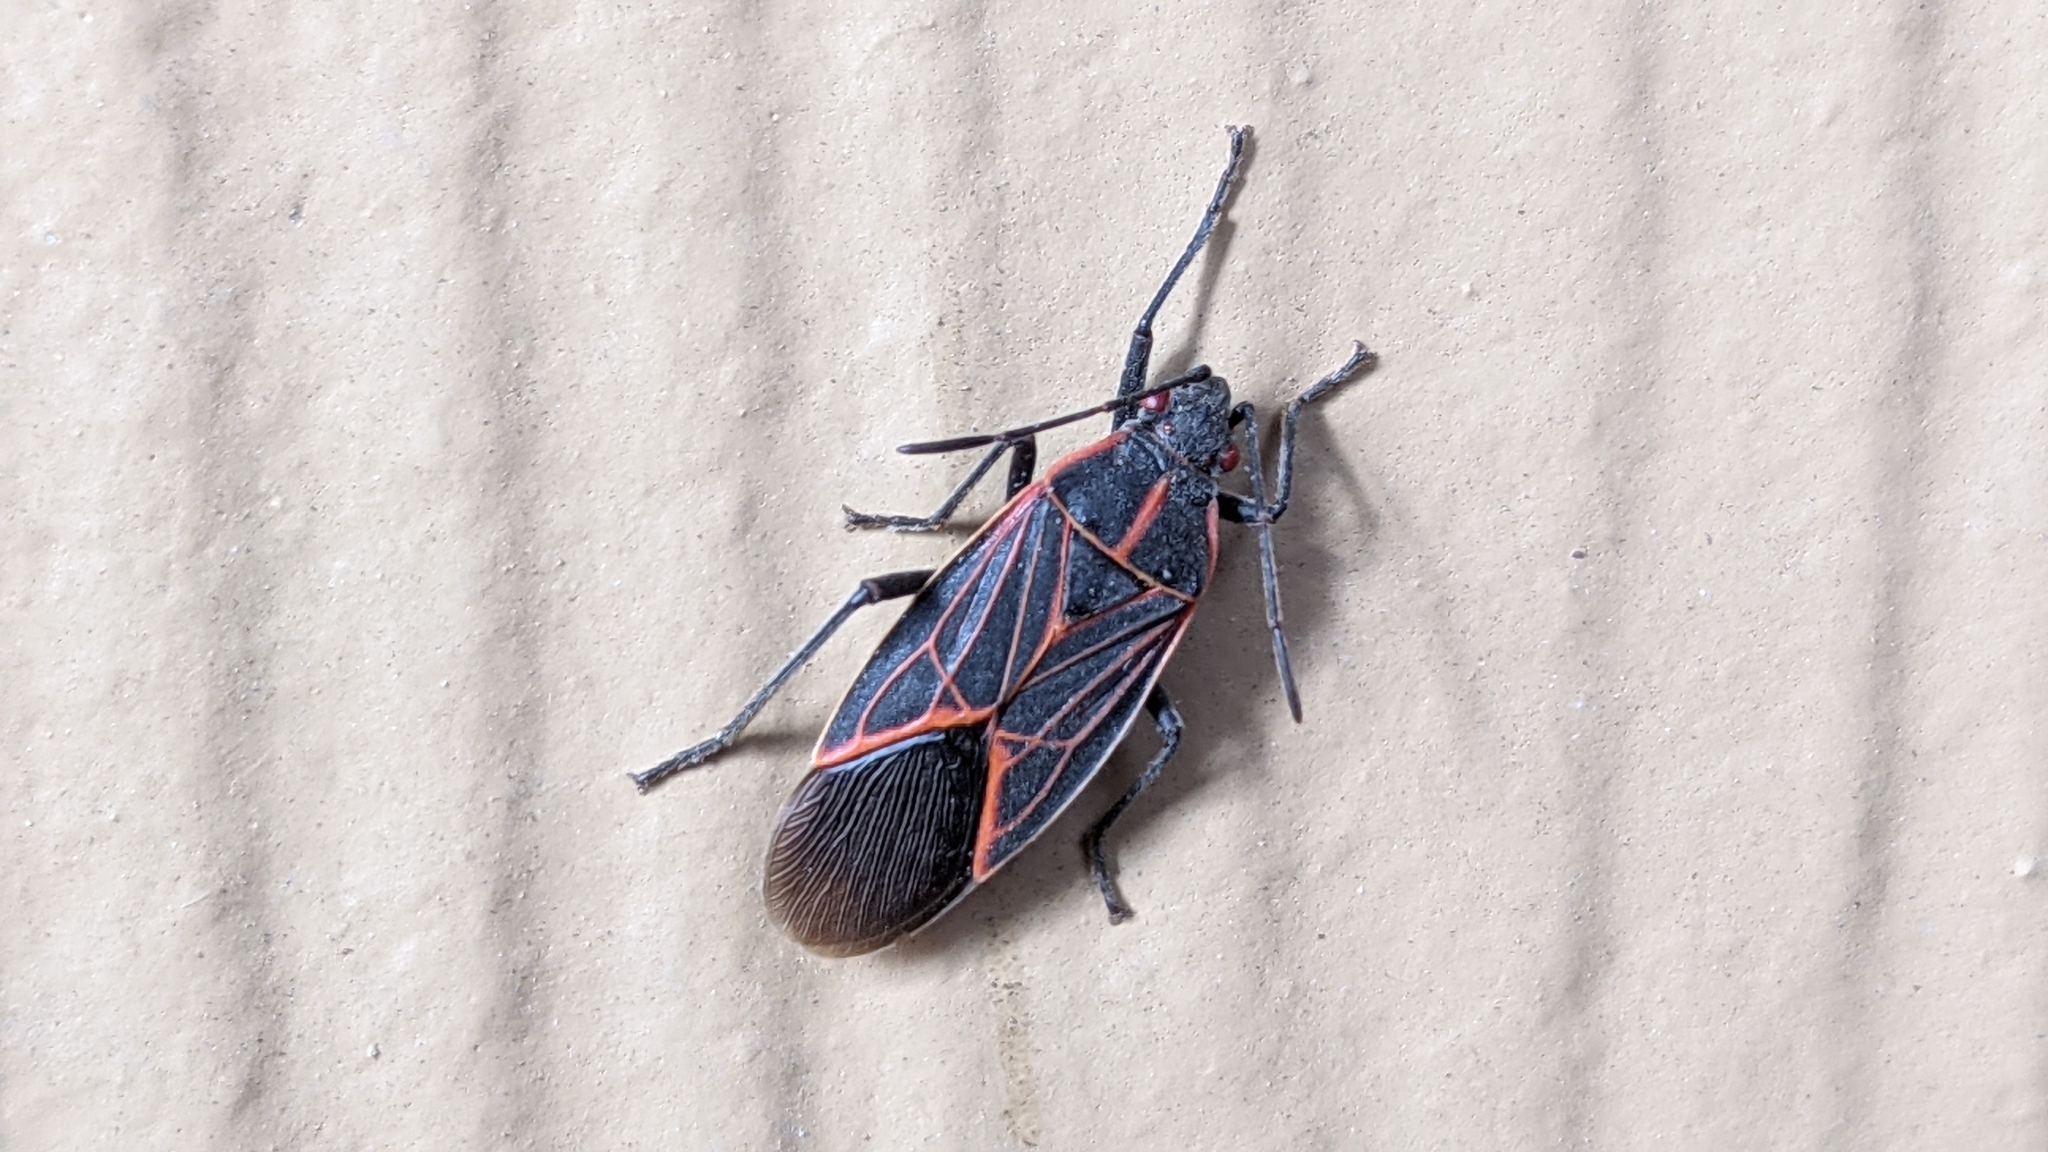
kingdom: Animalia
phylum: Arthropoda
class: Insecta
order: Hemiptera
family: Rhopalidae
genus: Boisea
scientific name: Boisea rubrolineata
